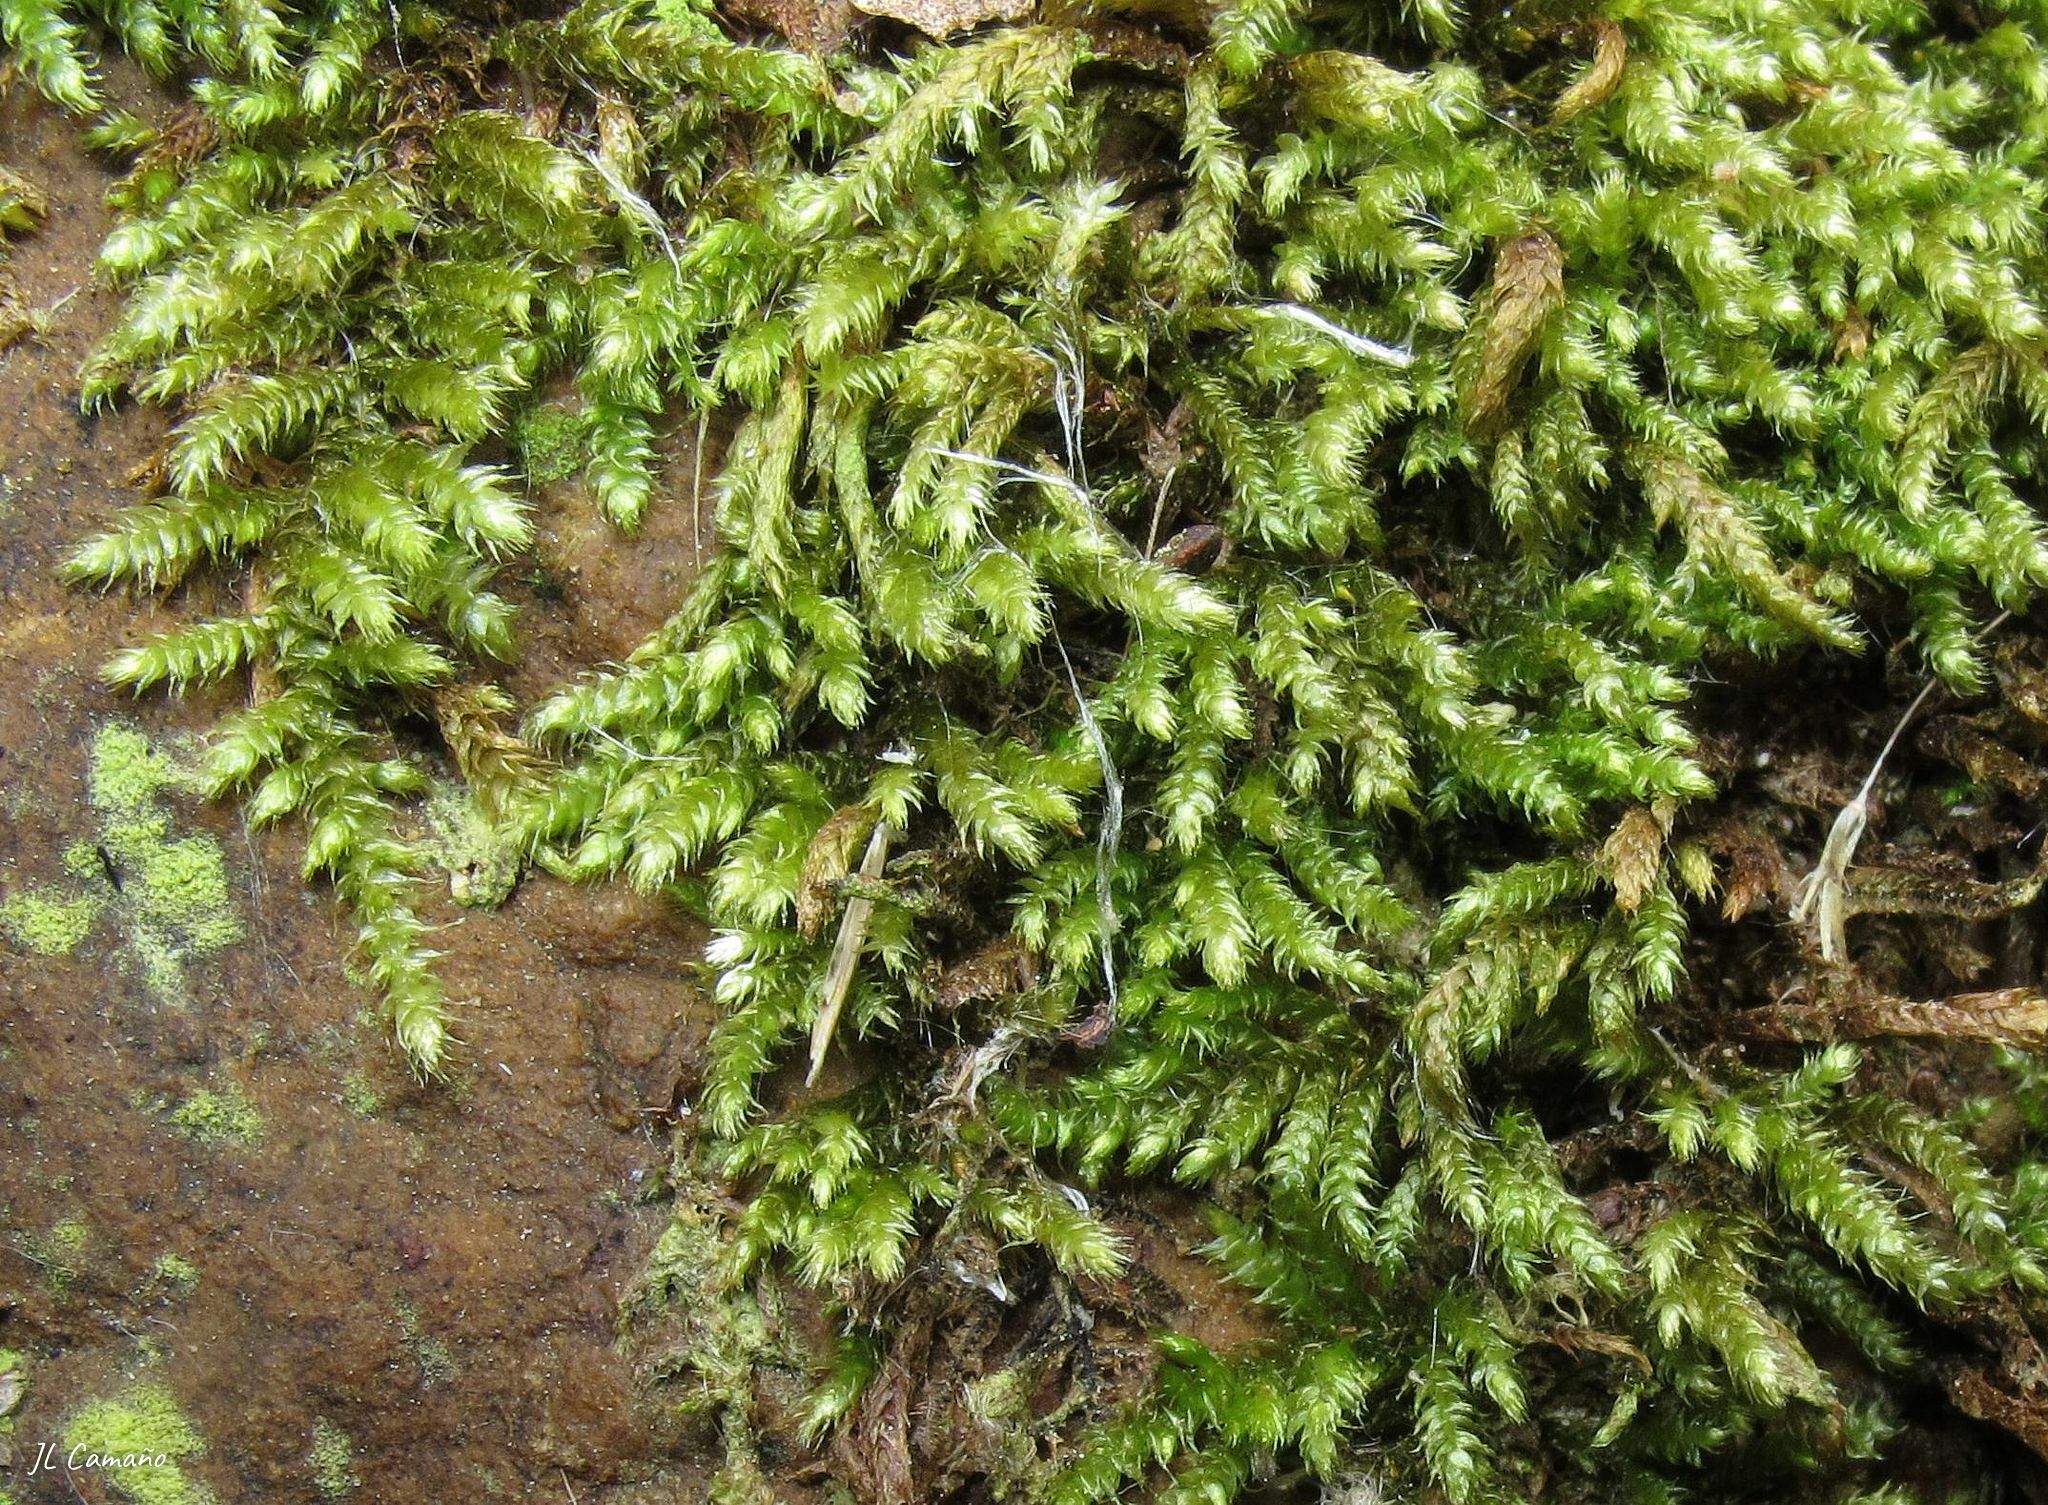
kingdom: Plantae
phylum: Bryophyta
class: Bryopsida
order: Hypnales
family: Myuriaceae
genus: Hyocomium
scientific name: Hyocomium armoricum
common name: Flagellate feather-moss
